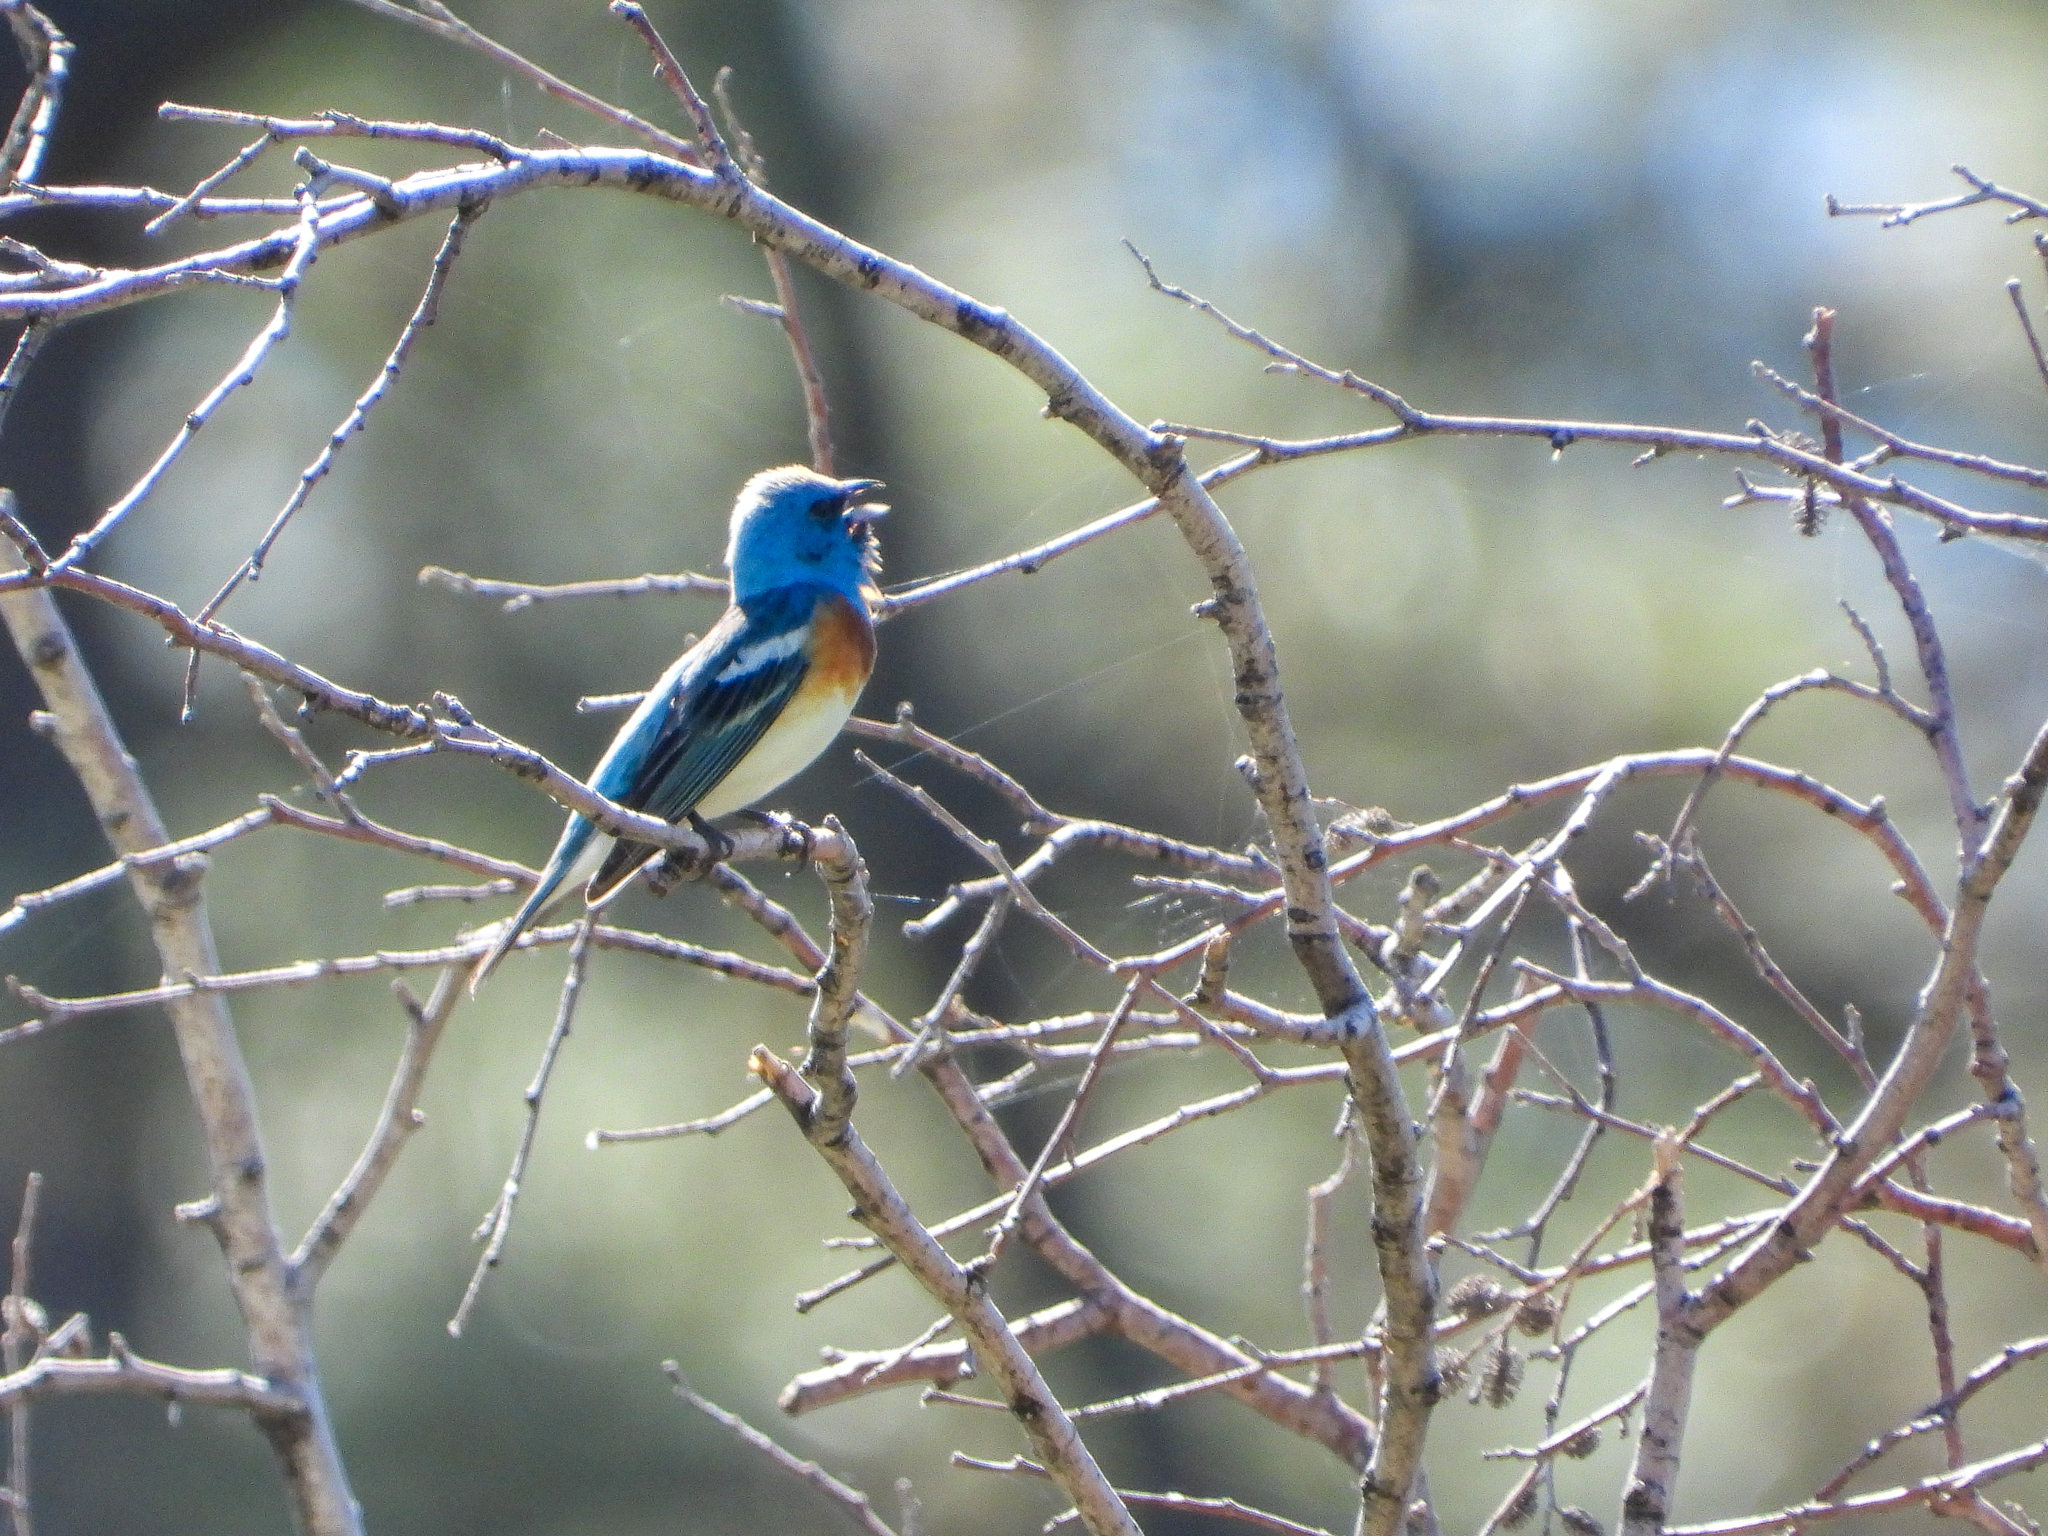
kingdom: Animalia
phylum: Chordata
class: Aves
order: Passeriformes
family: Cardinalidae
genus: Passerina
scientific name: Passerina amoena
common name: Lazuli bunting
